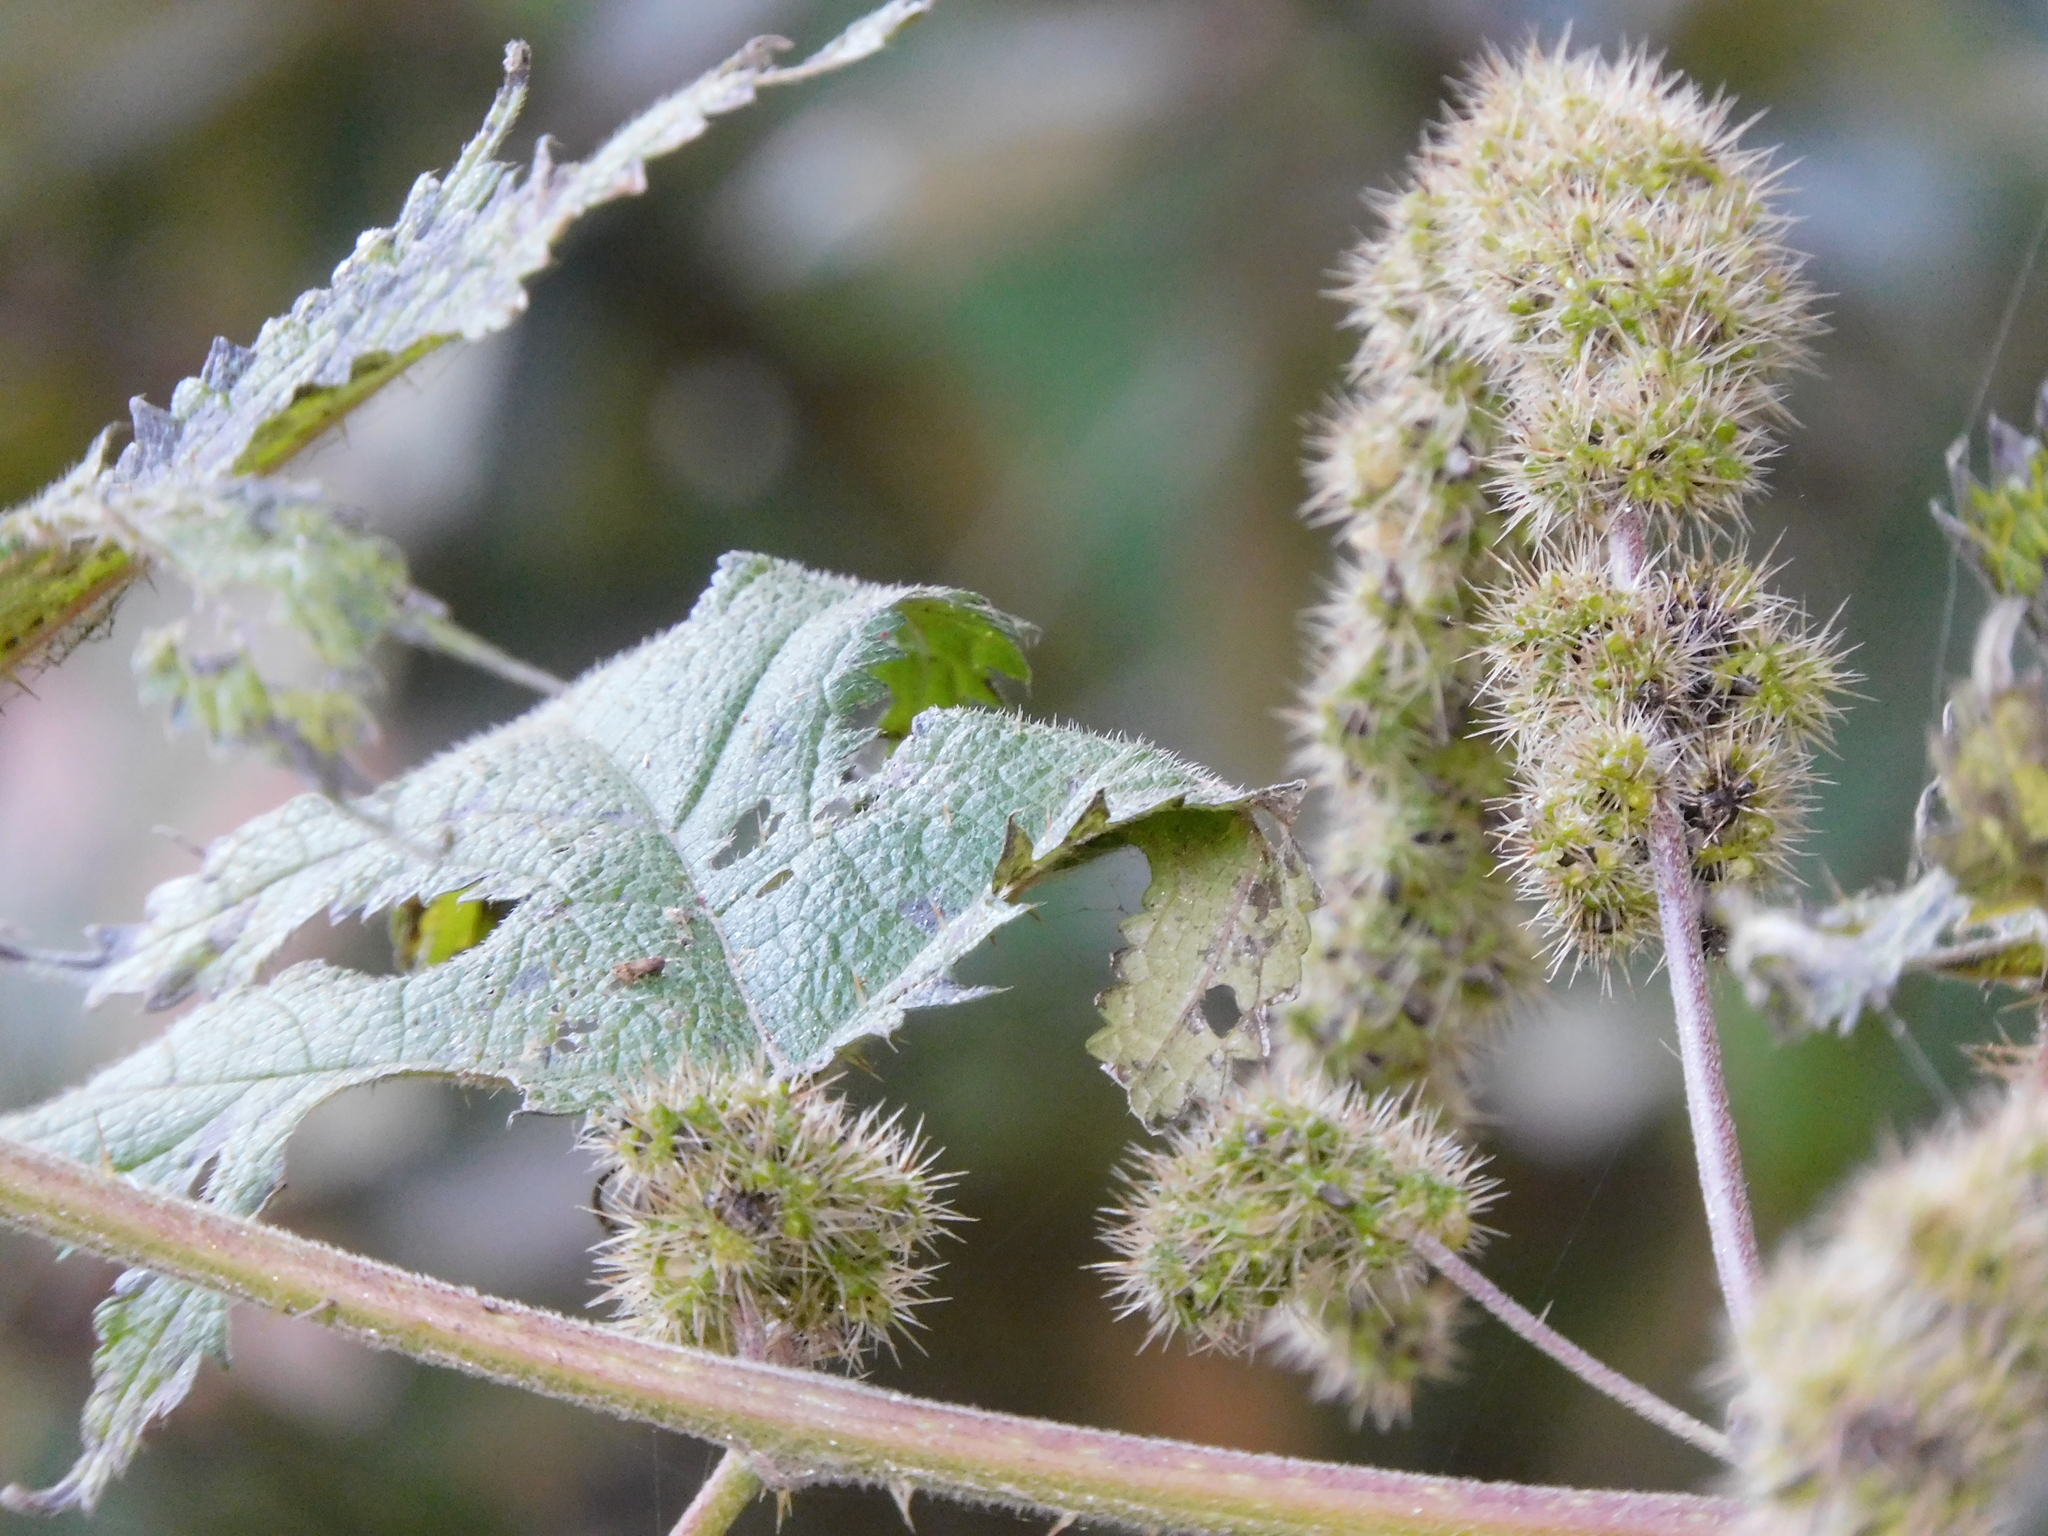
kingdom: Plantae
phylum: Tracheophyta
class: Magnoliopsida
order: Rosales
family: Urticaceae
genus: Girardinia
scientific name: Girardinia diversifolia
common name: Himalayan-nettle
